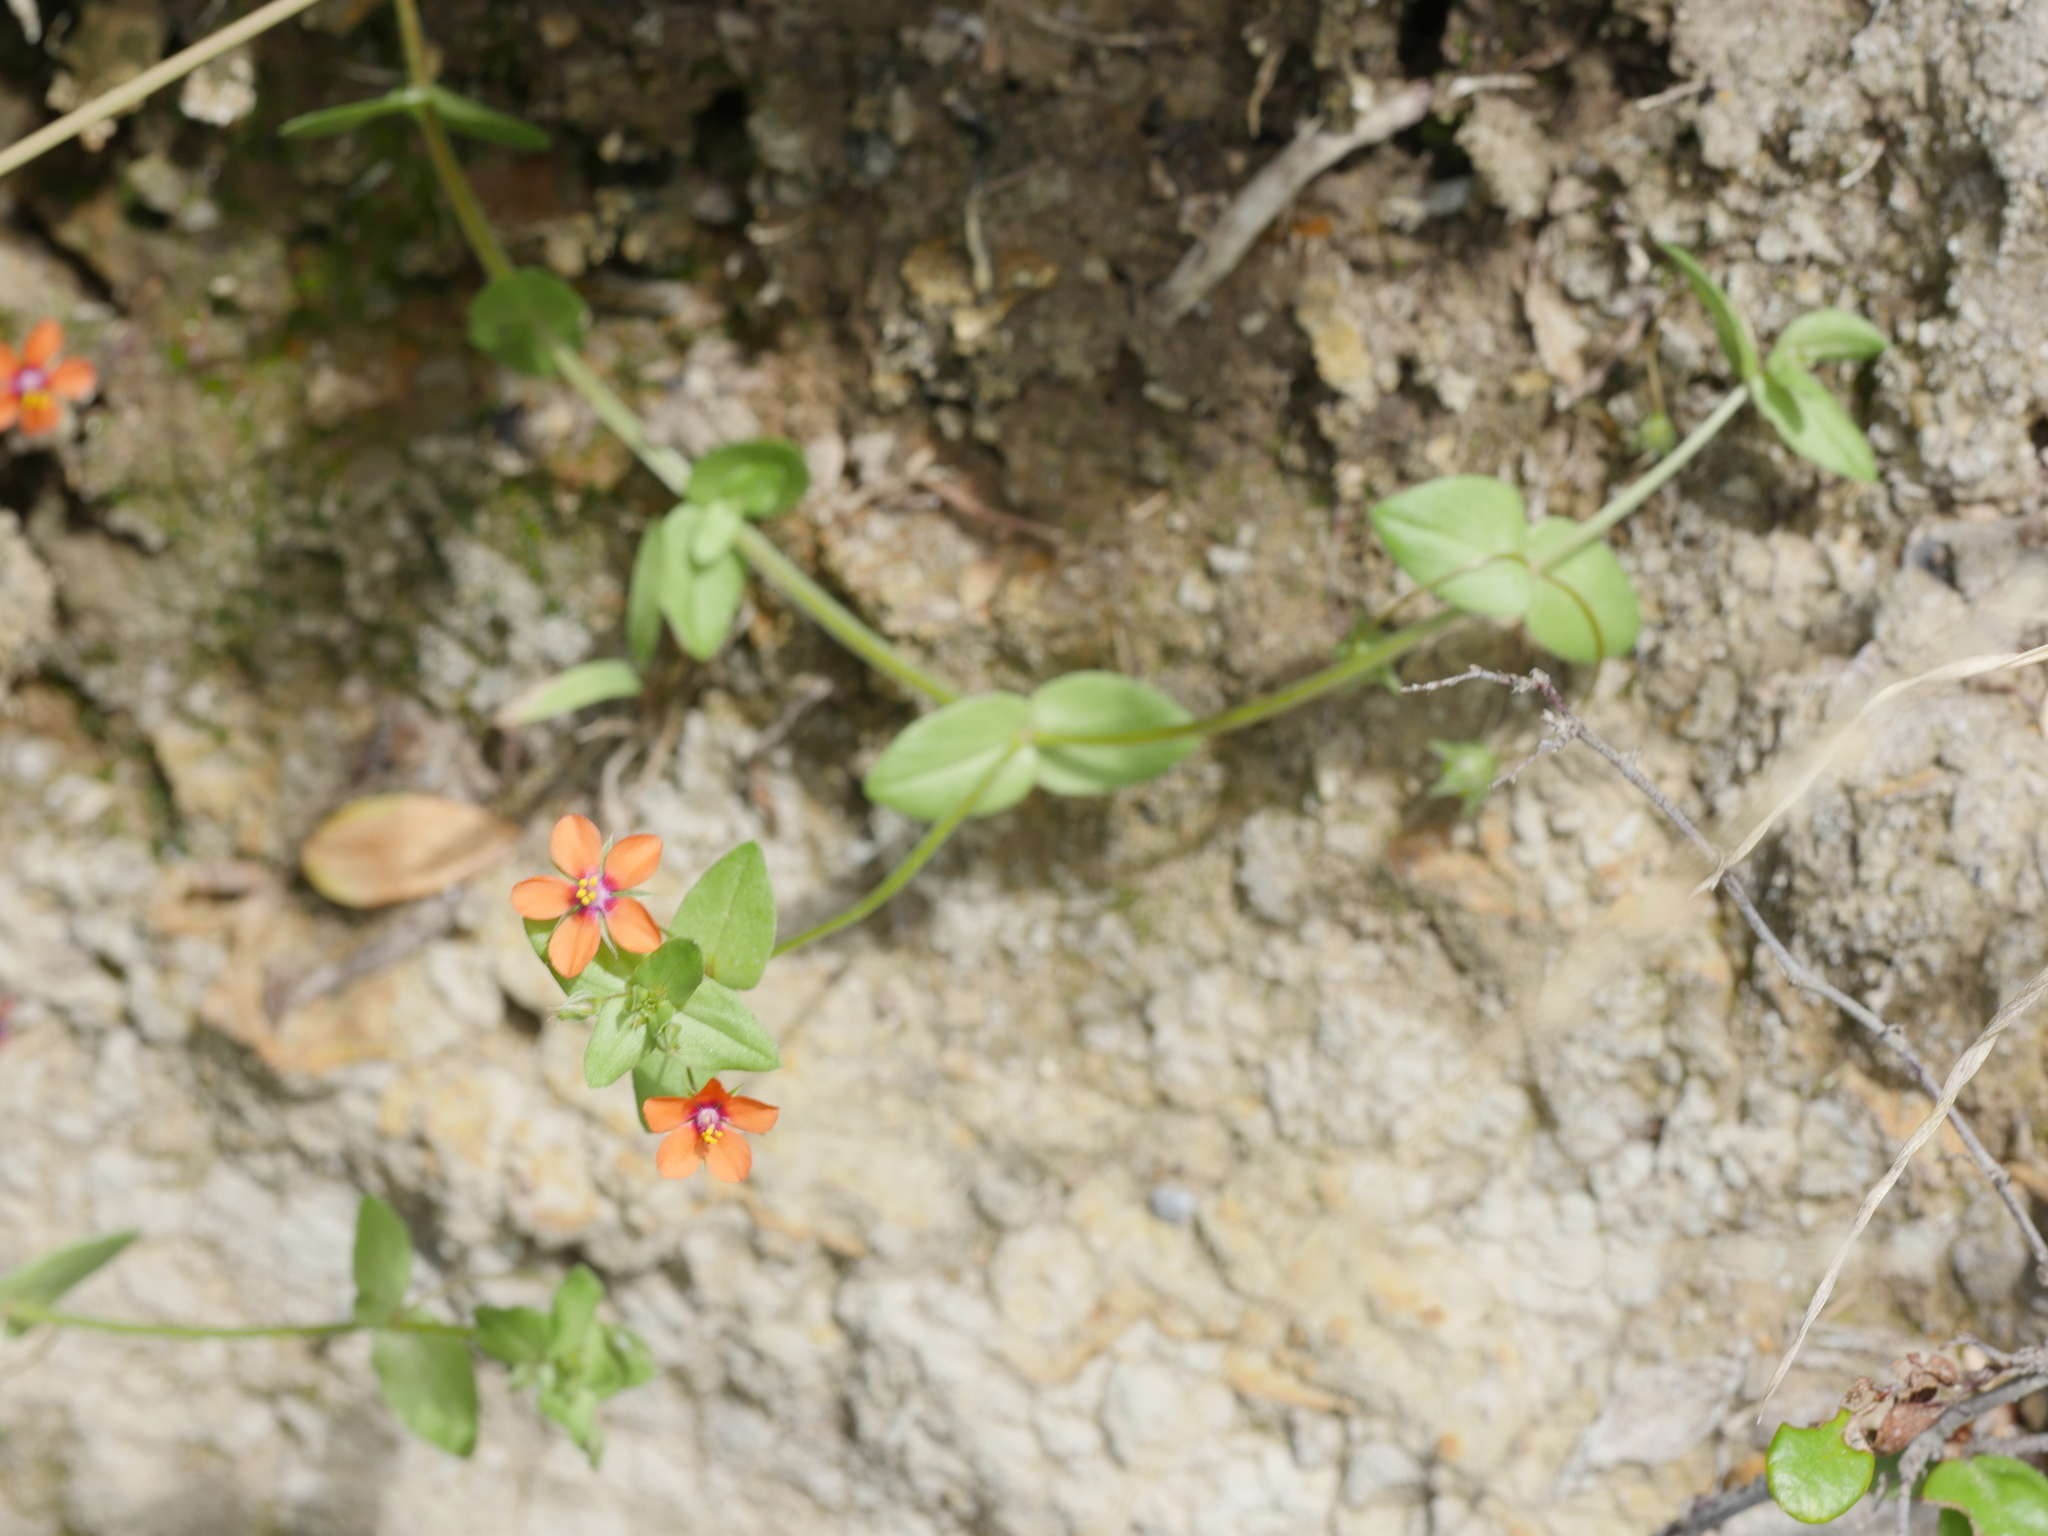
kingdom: Plantae
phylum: Tracheophyta
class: Magnoliopsida
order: Ericales
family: Primulaceae
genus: Lysimachia
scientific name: Lysimachia arvensis
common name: Scarlet pimpernel
